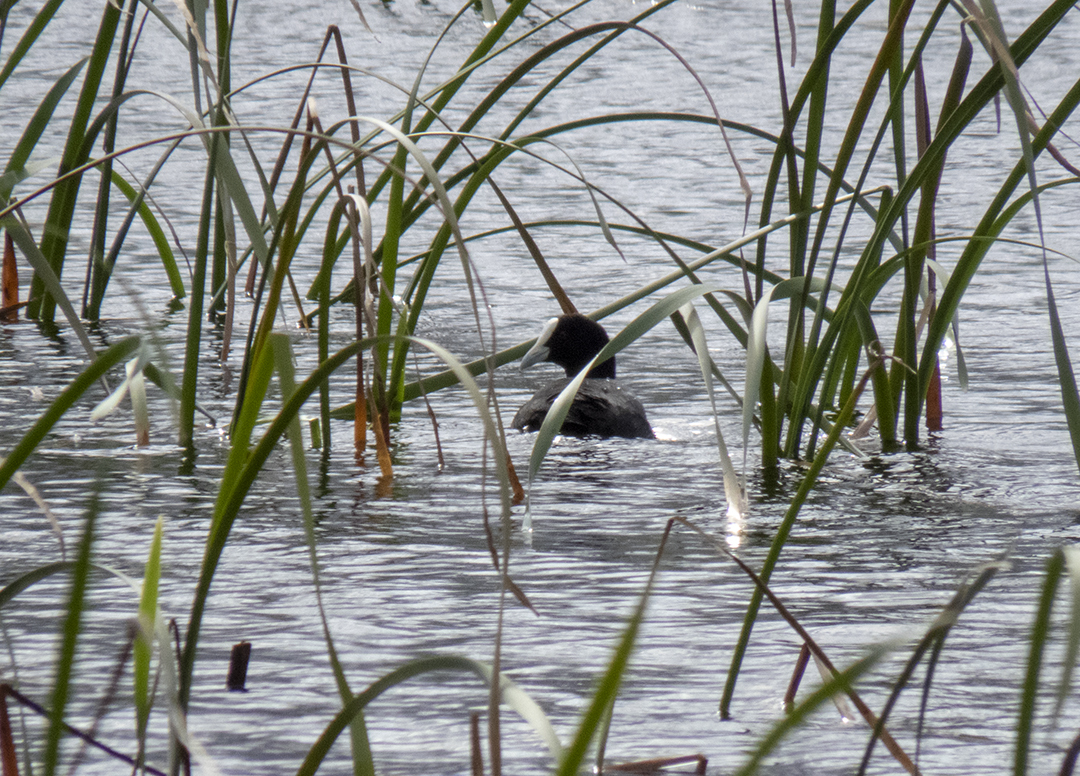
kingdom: Animalia
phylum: Chordata
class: Aves
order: Gruiformes
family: Rallidae
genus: Fulica
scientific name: Fulica atra
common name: Eurasian coot
